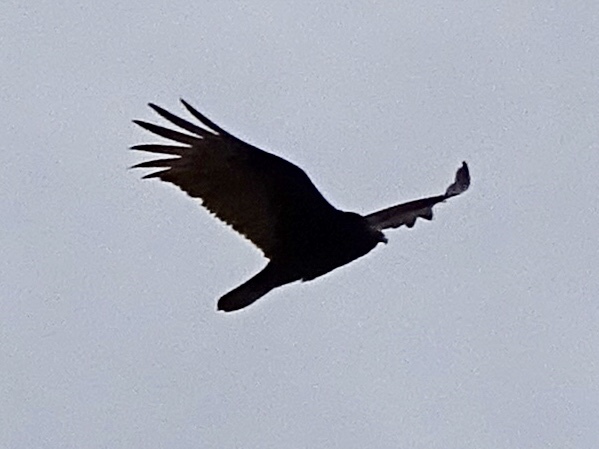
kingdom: Animalia
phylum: Chordata
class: Aves
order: Accipitriformes
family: Cathartidae
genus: Cathartes
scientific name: Cathartes aura
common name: Turkey vulture
